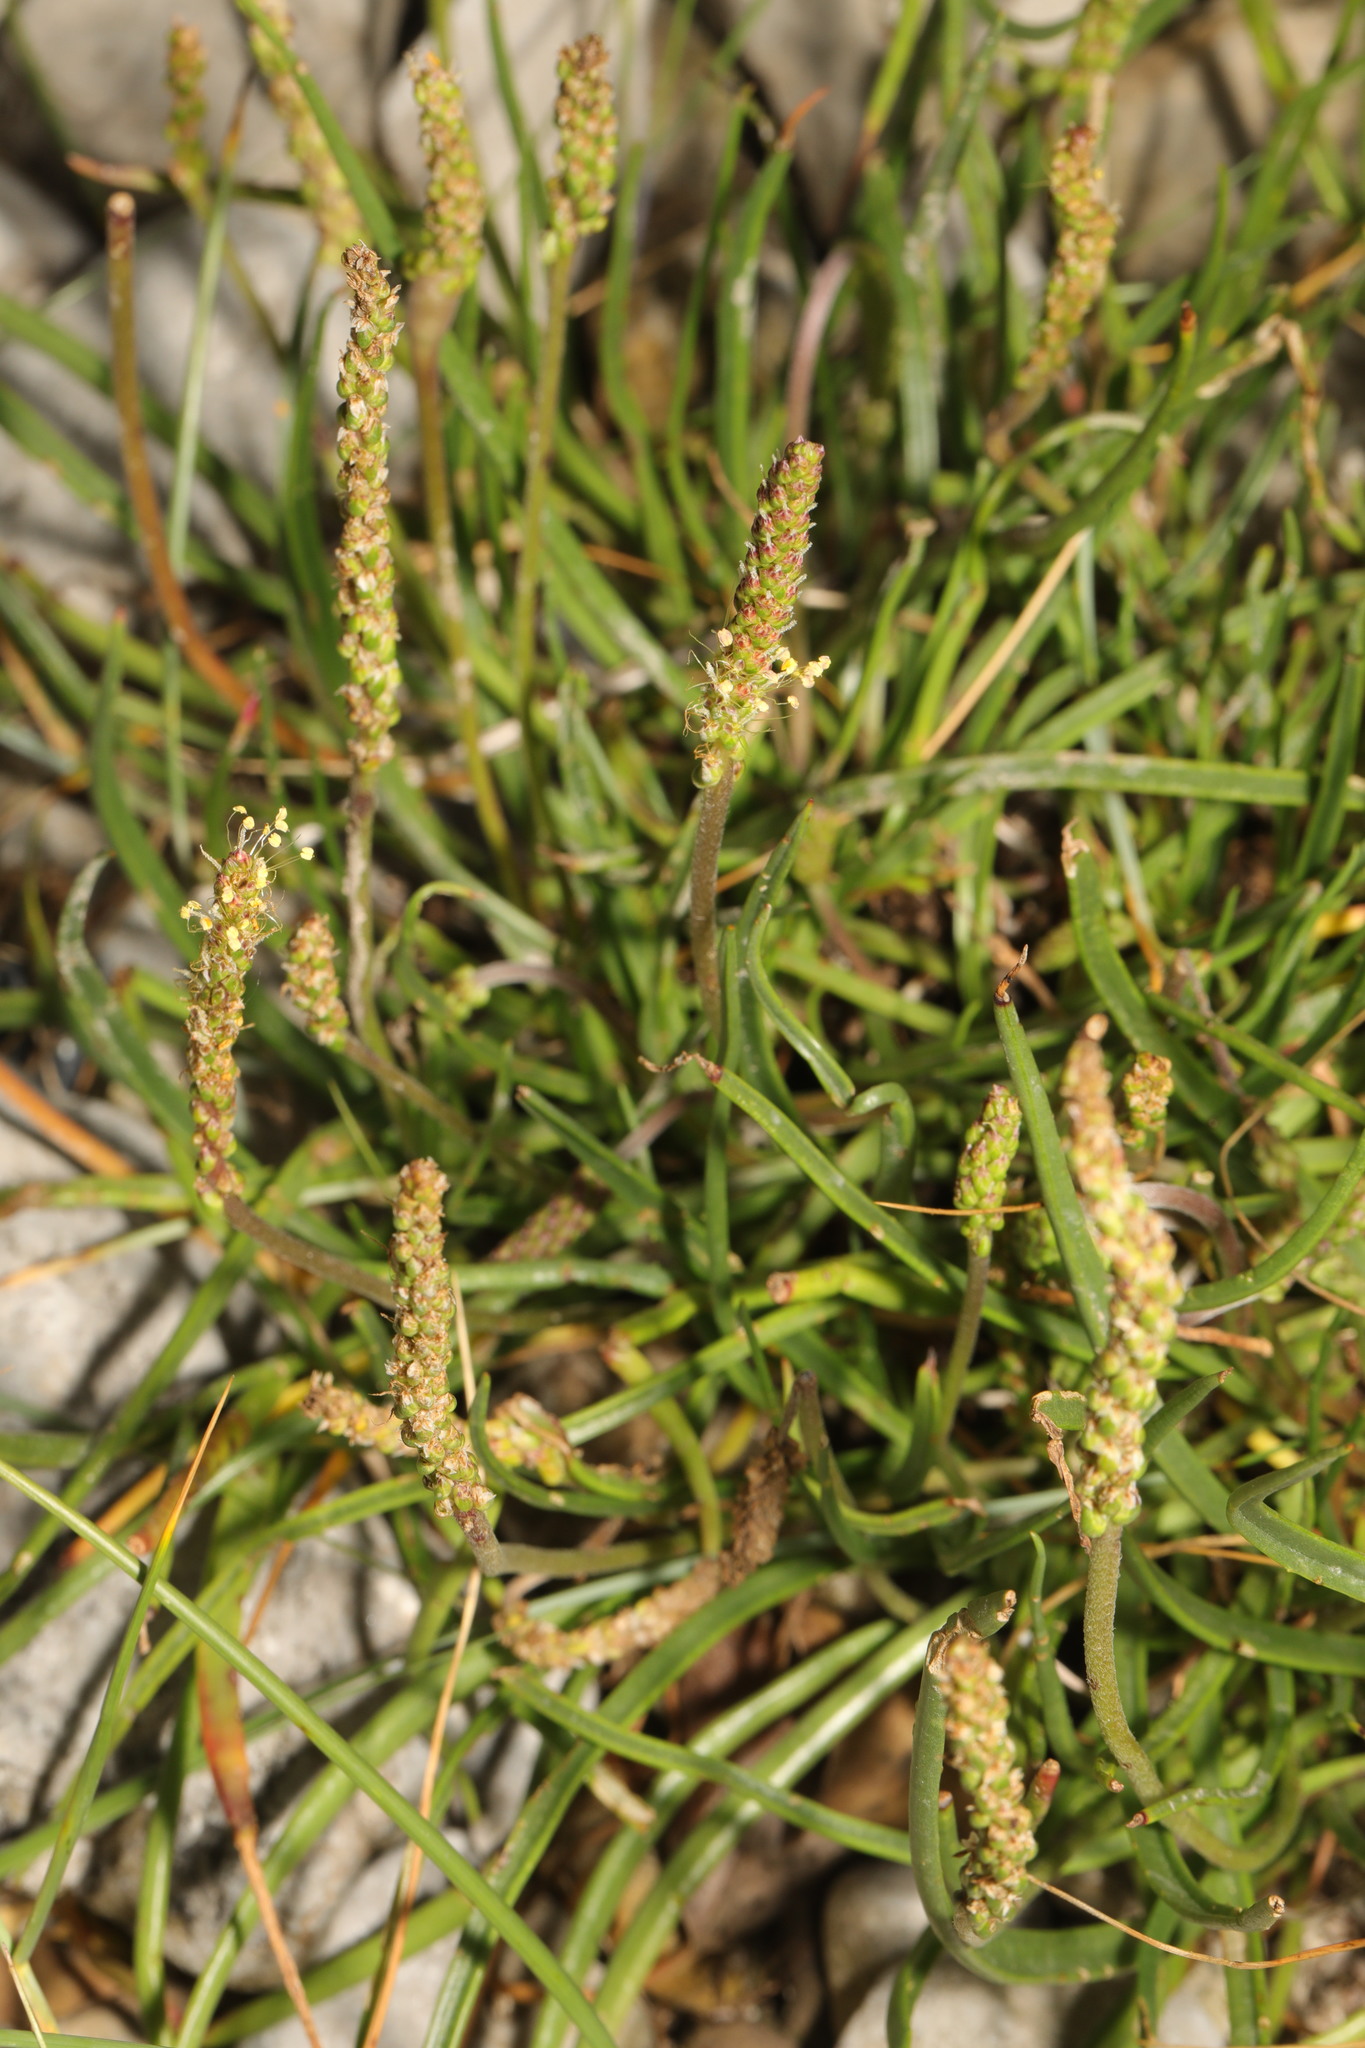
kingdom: Plantae
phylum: Tracheophyta
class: Magnoliopsida
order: Lamiales
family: Plantaginaceae
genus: Plantago
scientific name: Plantago maritima
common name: Sea plantain
